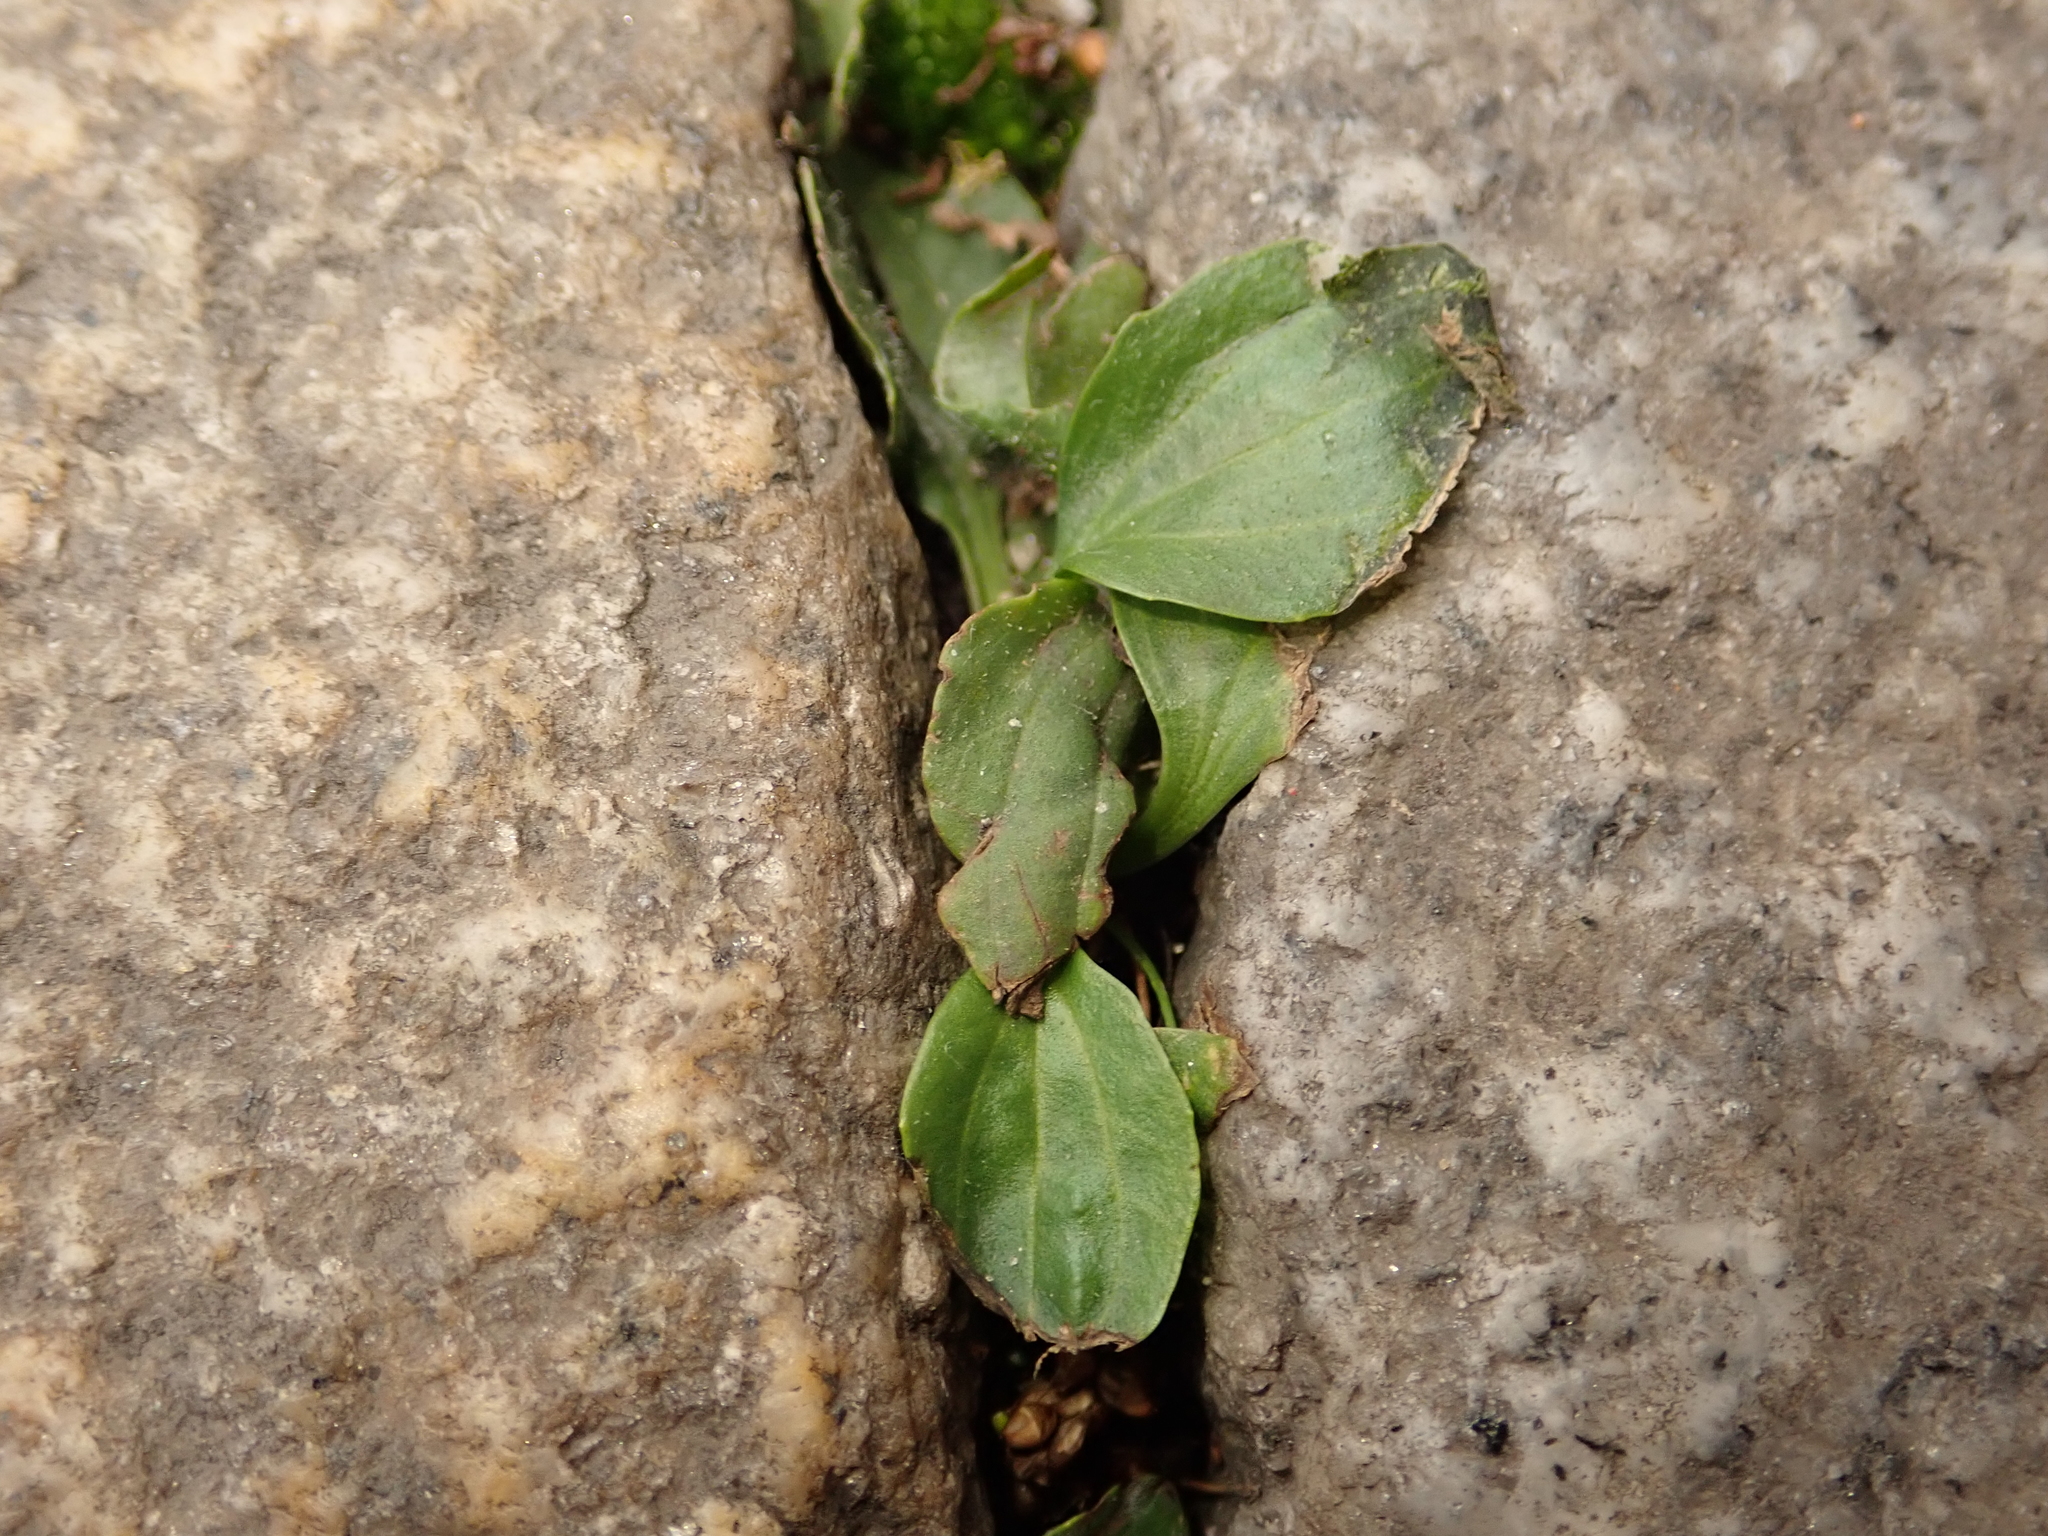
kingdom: Plantae
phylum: Tracheophyta
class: Magnoliopsida
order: Lamiales
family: Plantaginaceae
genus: Plantago
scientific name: Plantago major
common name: Common plantain
